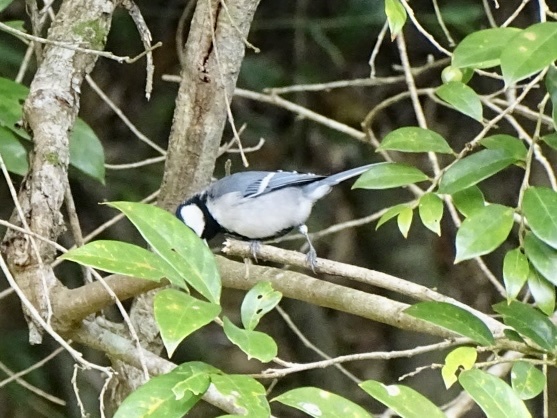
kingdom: Animalia
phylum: Chordata
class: Aves
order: Passeriformes
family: Paridae
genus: Parus
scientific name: Parus minor
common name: Japanese tit
